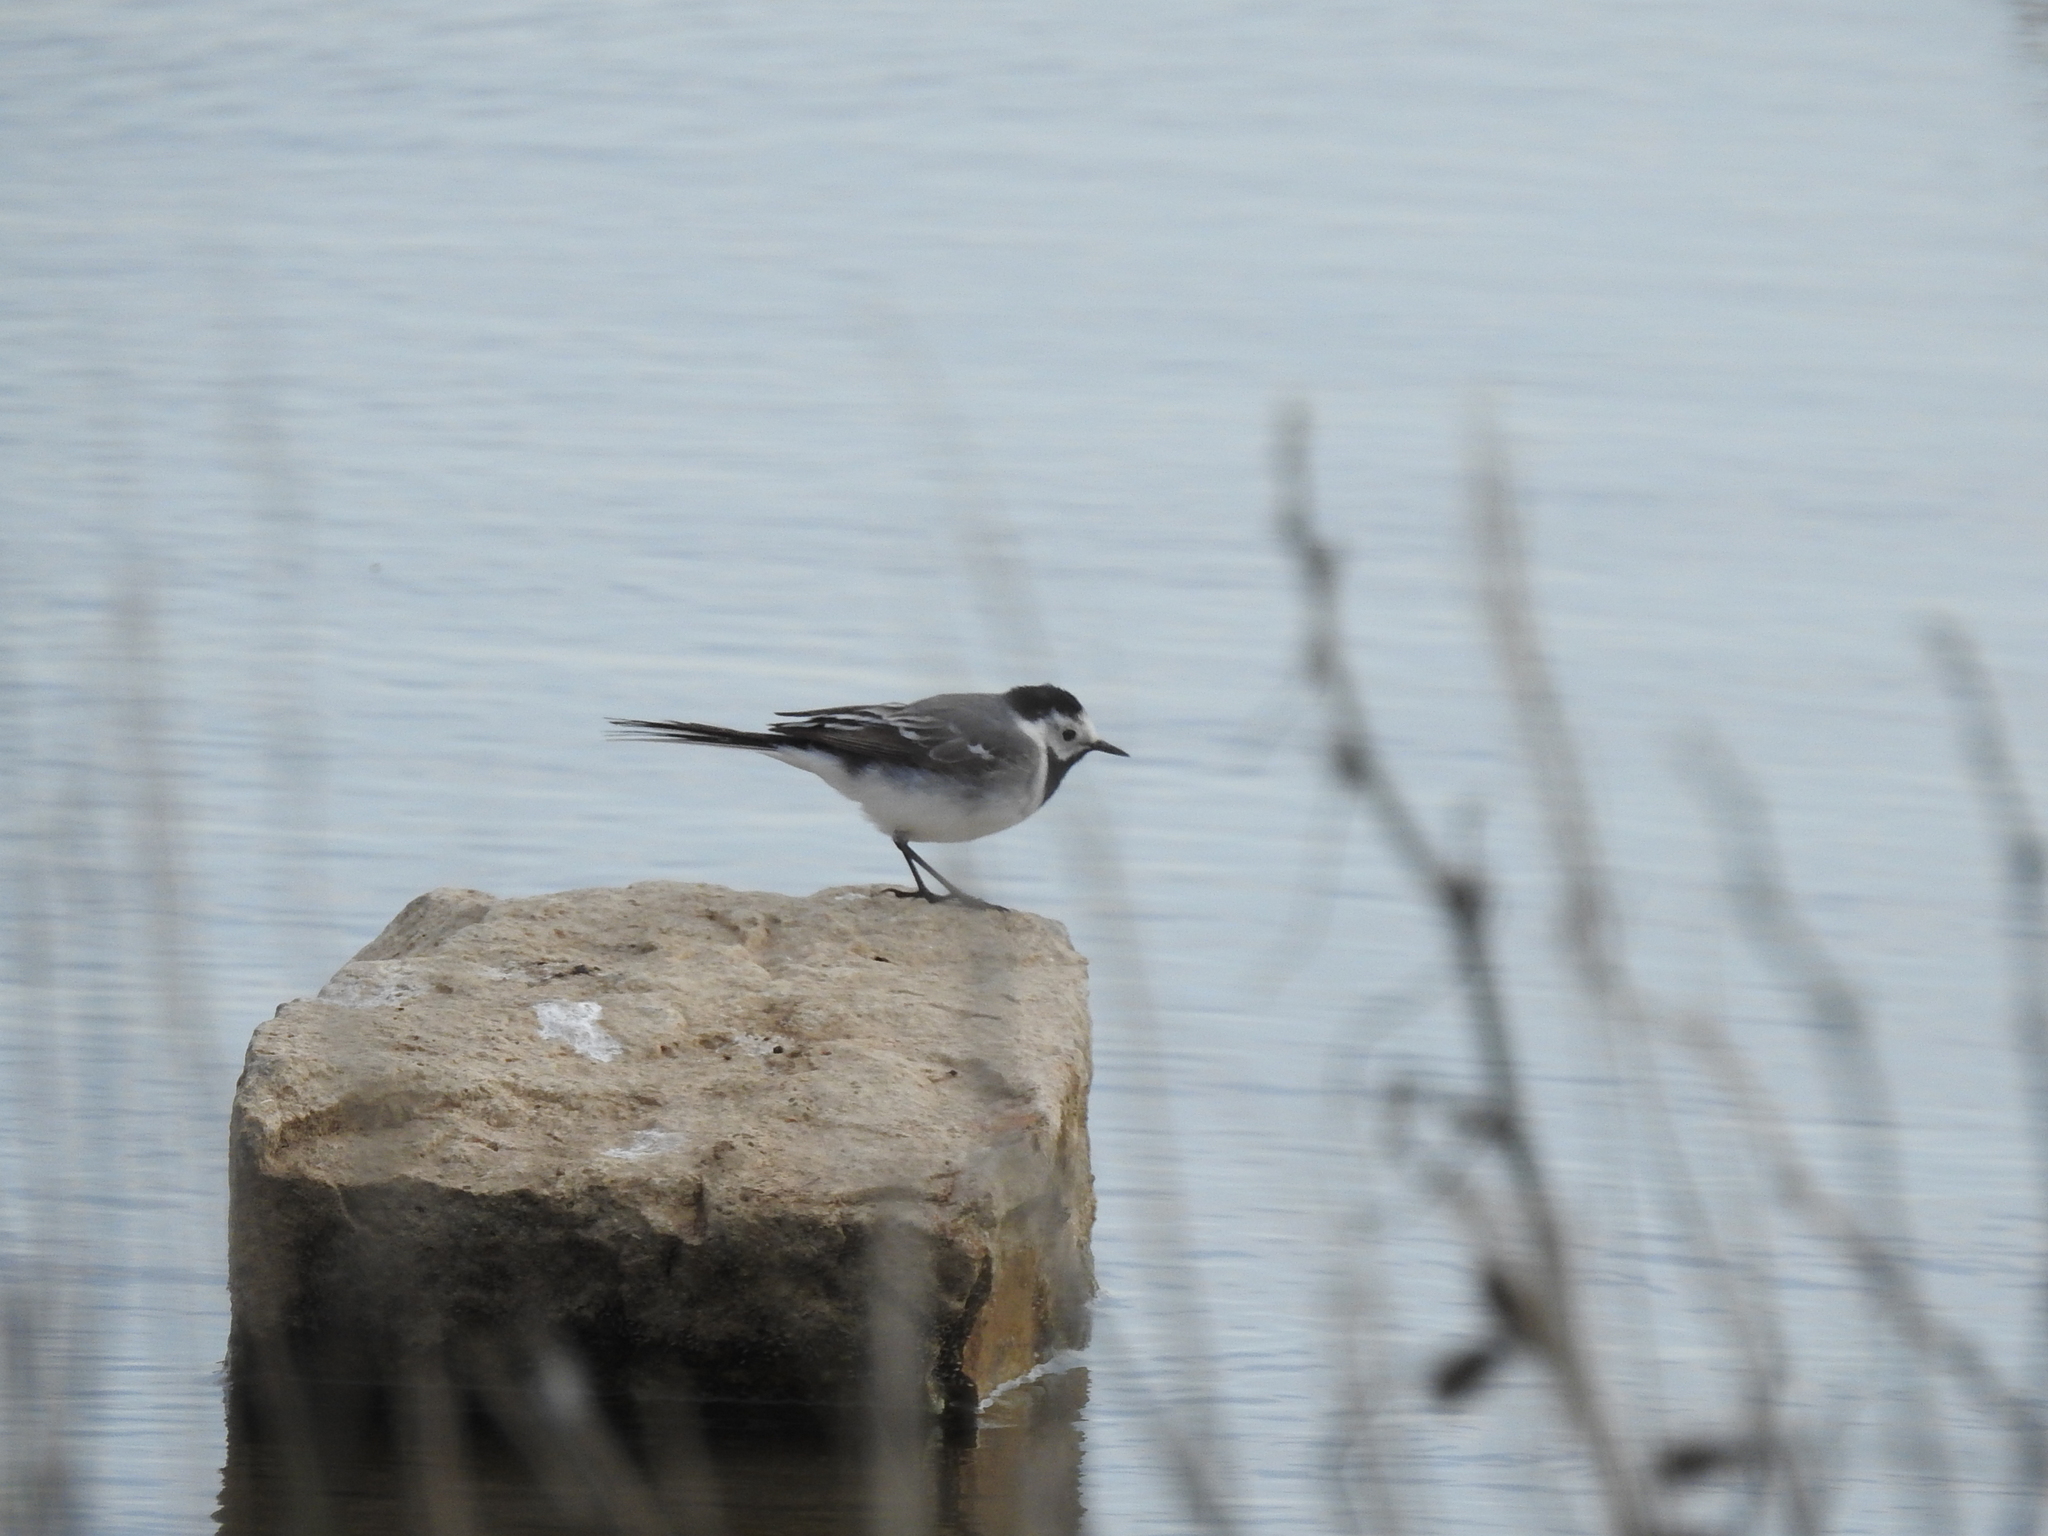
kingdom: Animalia
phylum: Chordata
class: Aves
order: Passeriformes
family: Motacillidae
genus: Motacilla
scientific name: Motacilla alba
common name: White wagtail
